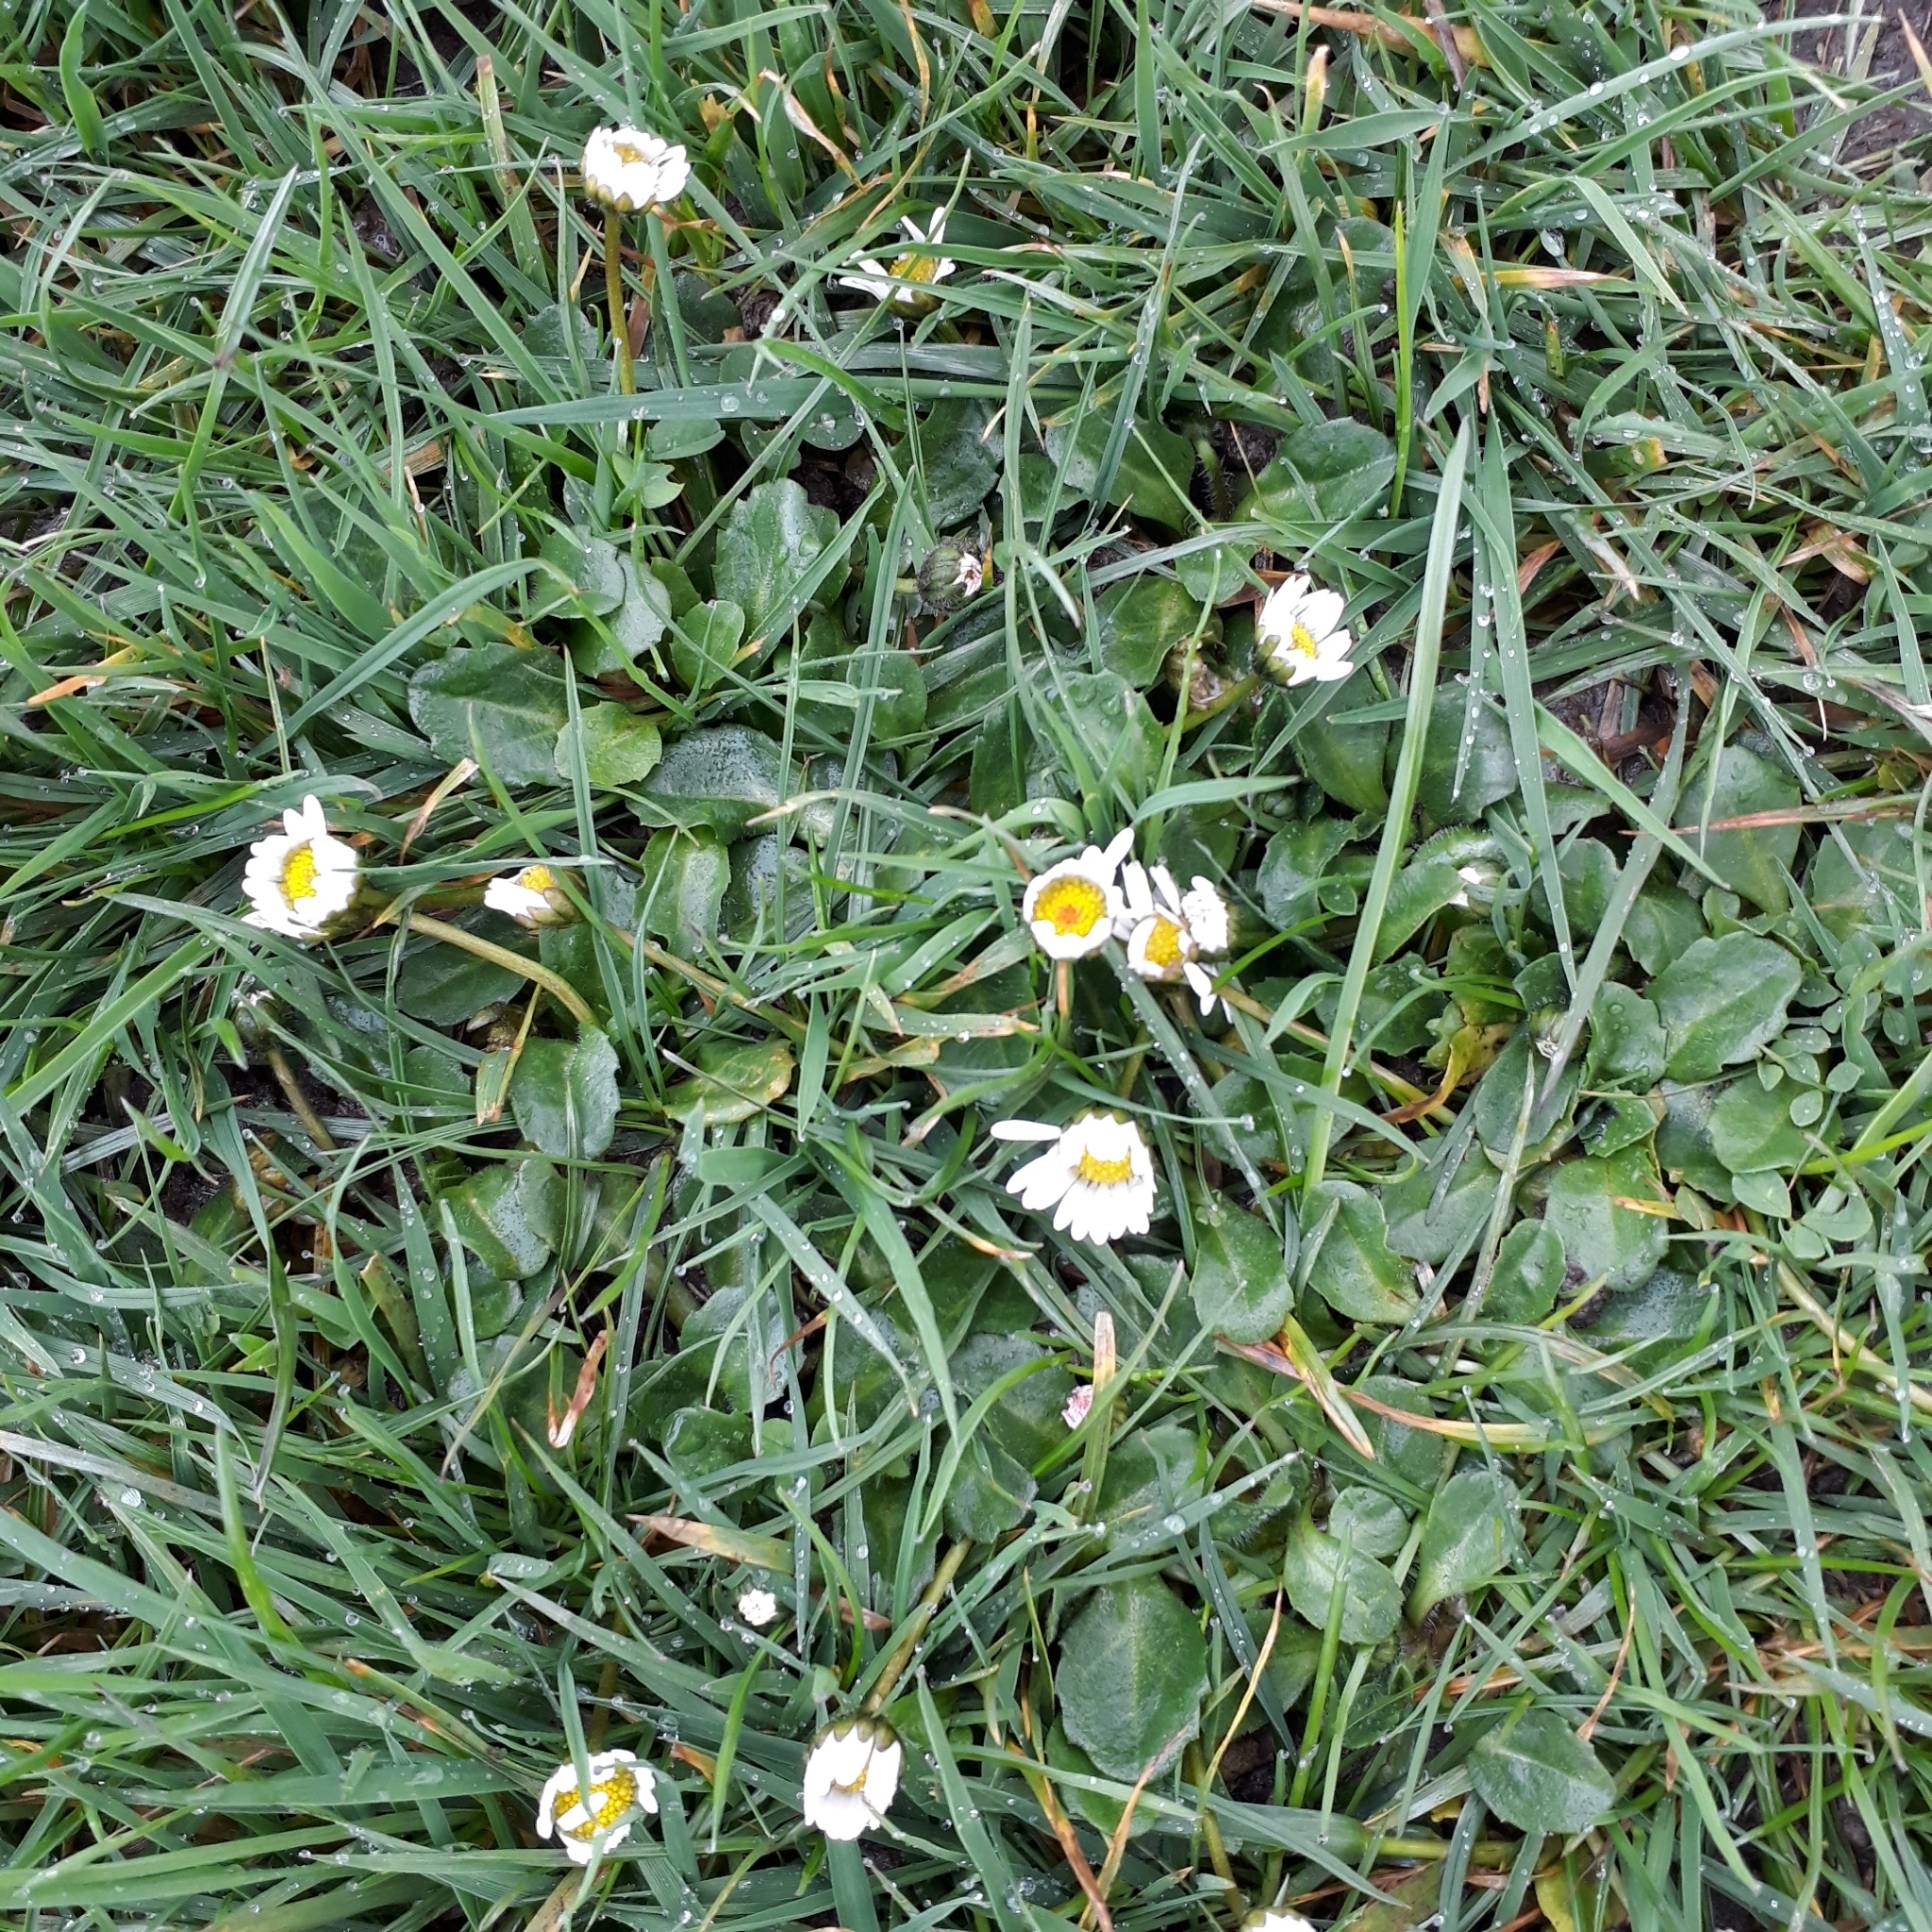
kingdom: Plantae
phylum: Tracheophyta
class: Magnoliopsida
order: Asterales
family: Asteraceae
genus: Bellis
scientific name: Bellis perennis
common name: Lawndaisy
